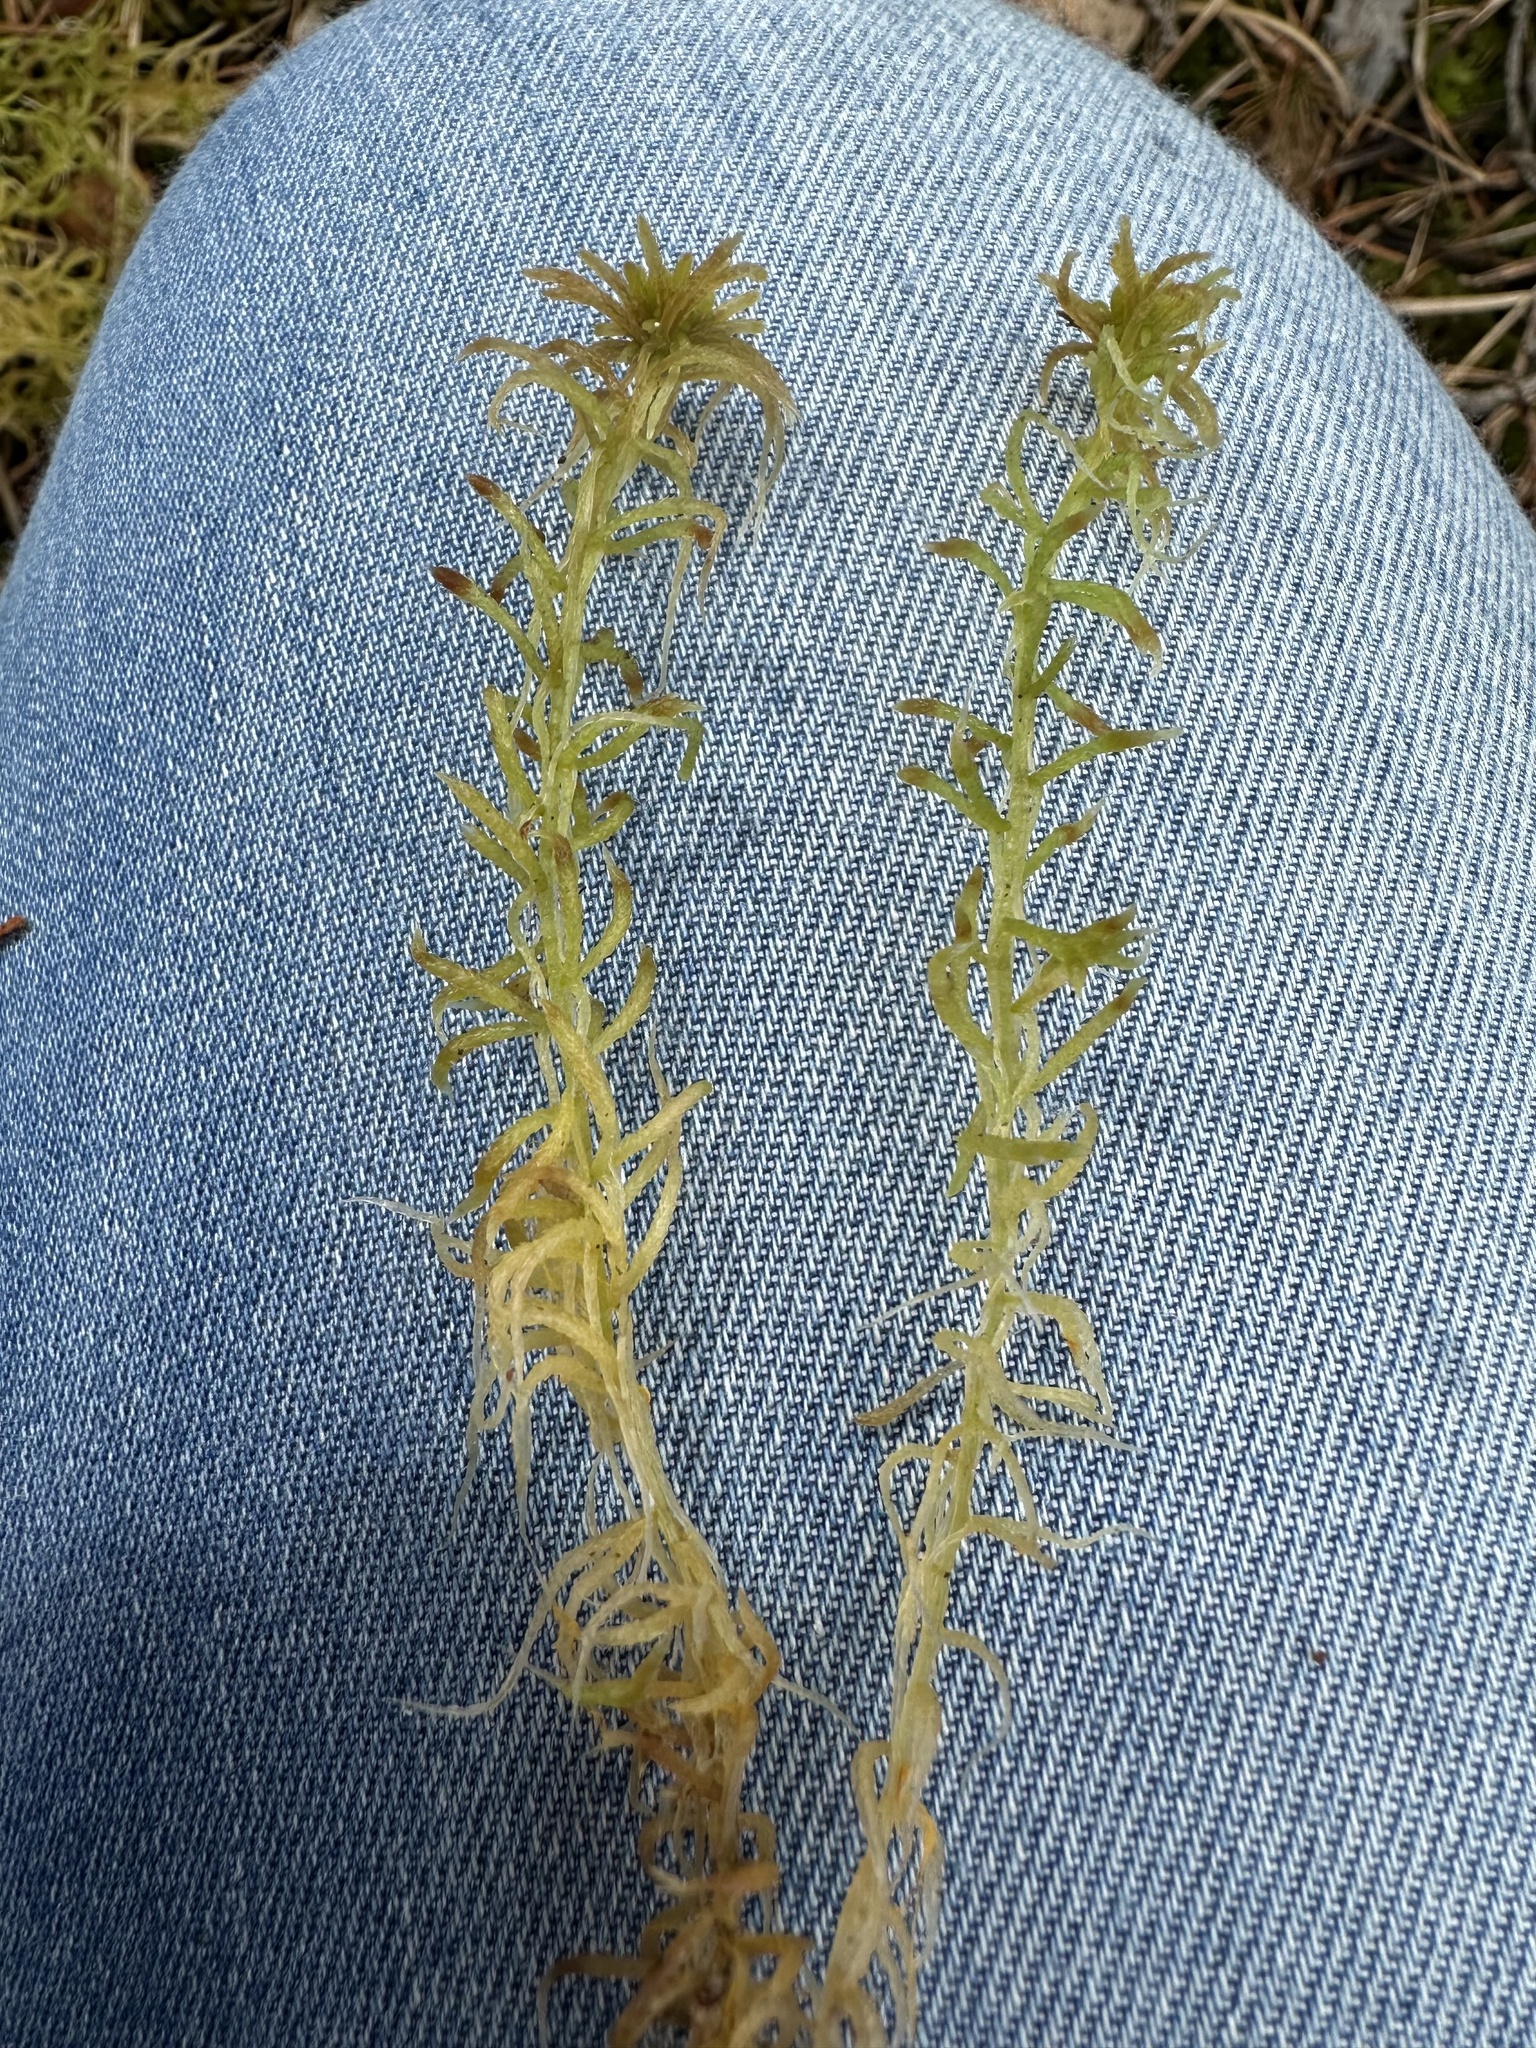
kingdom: Plantae
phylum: Bryophyta
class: Sphagnopsida
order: Sphagnales
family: Sphagnaceae
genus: Sphagnum
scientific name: Sphagnum girgensohnii
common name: Girgensohn's peat moss
